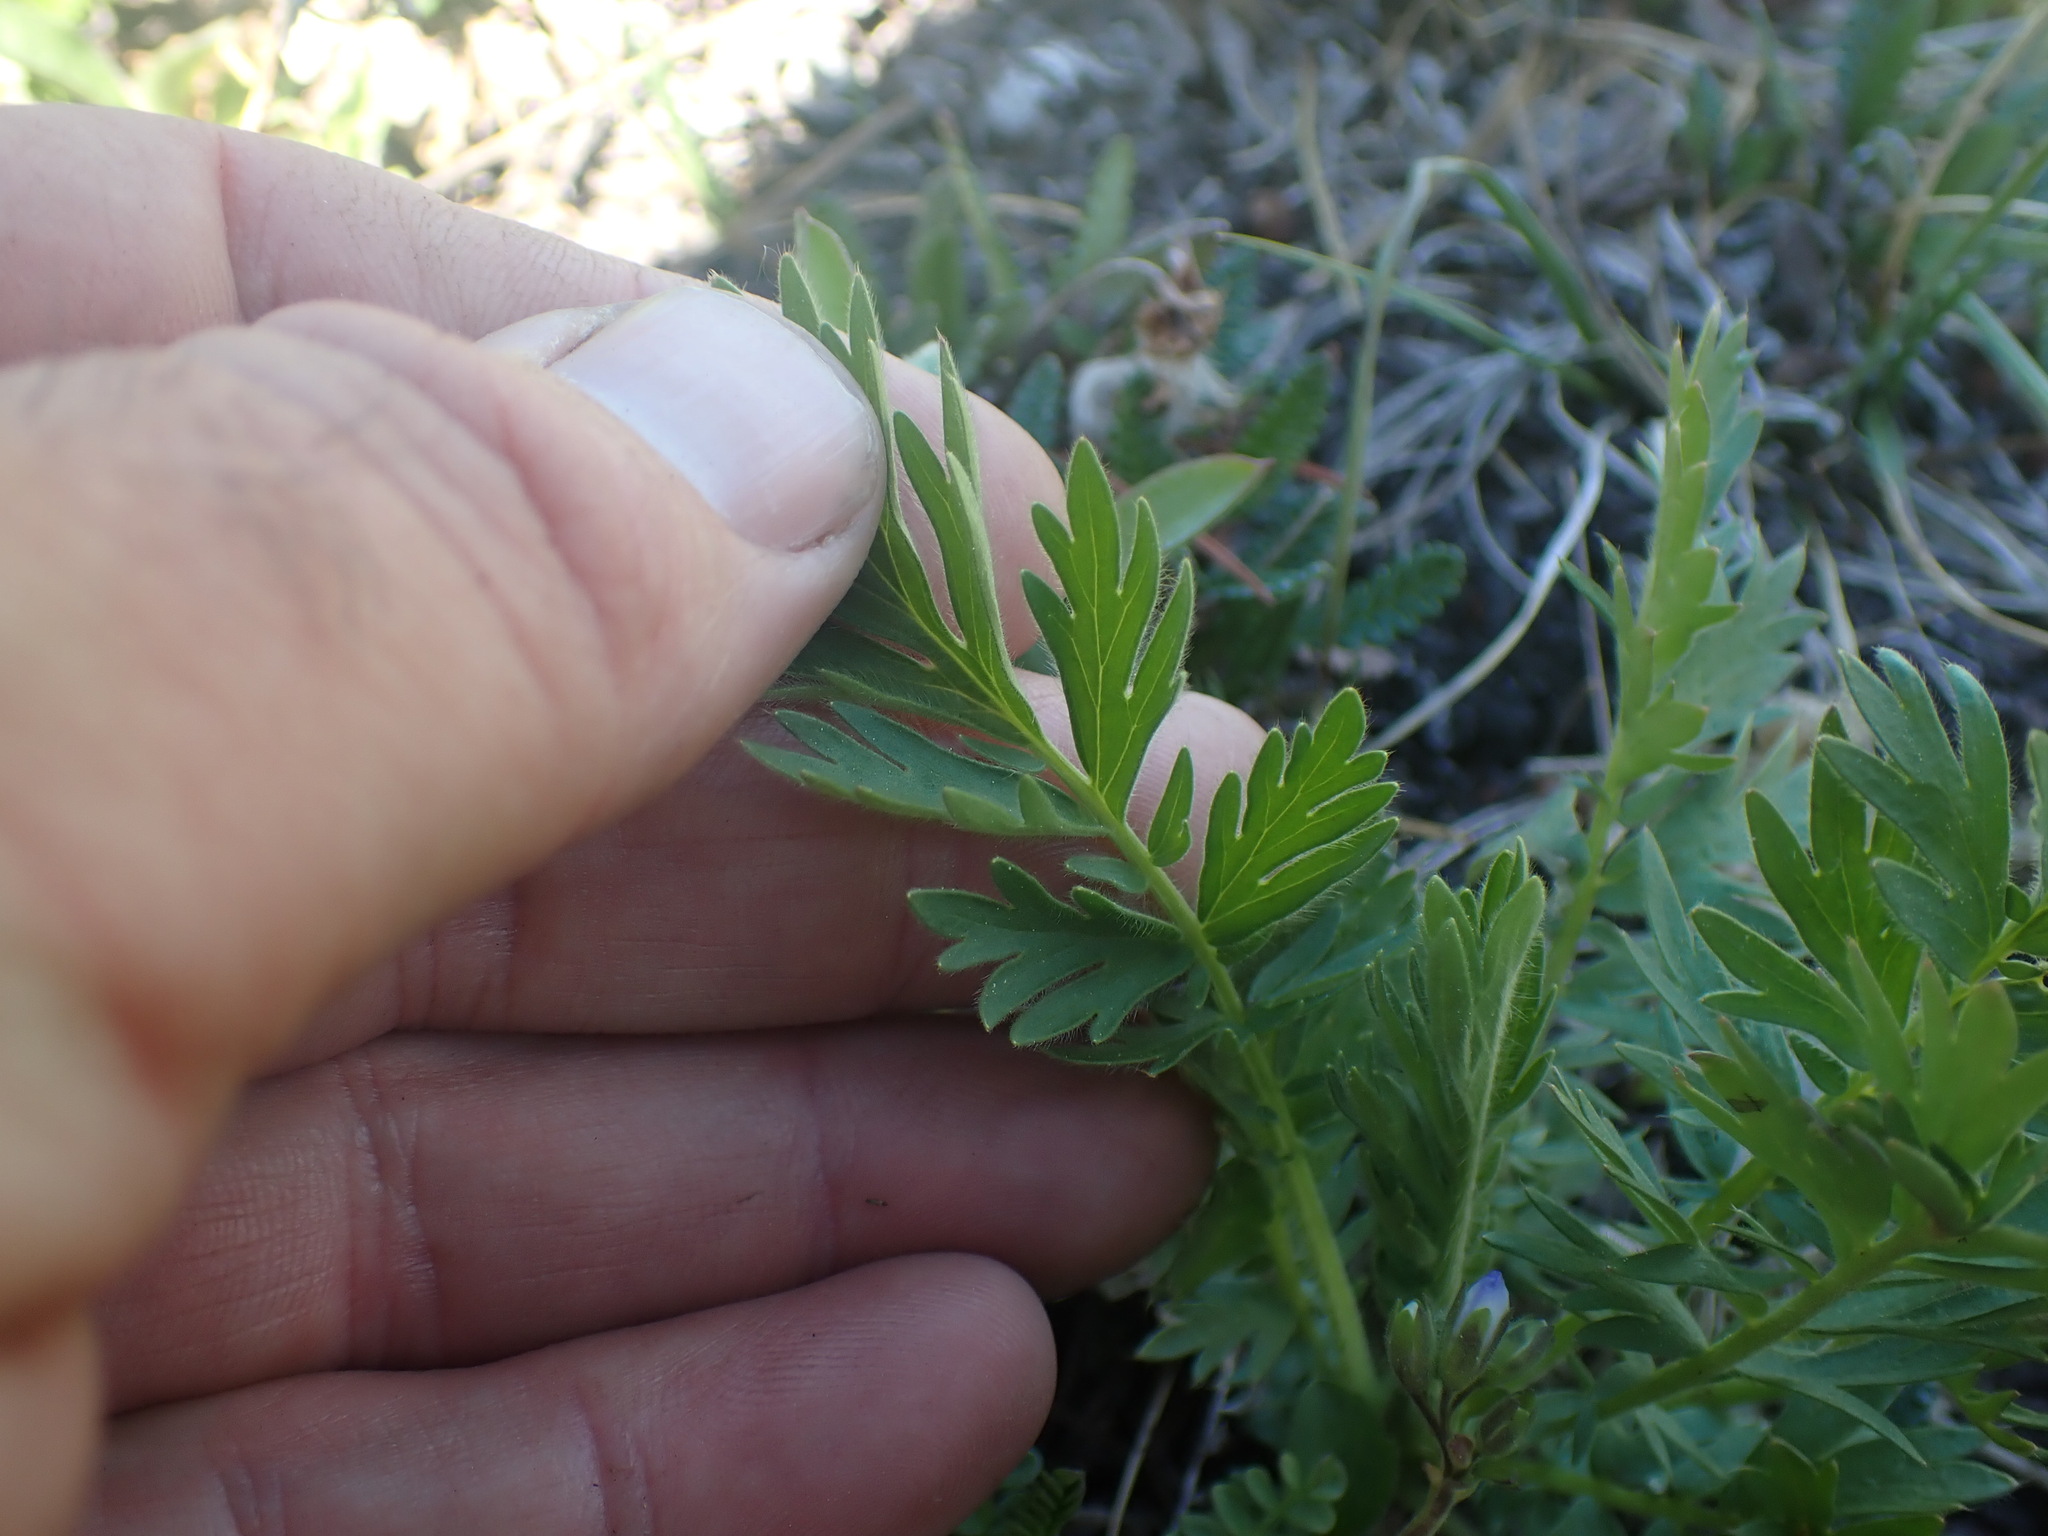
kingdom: Plantae
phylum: Tracheophyta
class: Magnoliopsida
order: Rosales
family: Rosaceae
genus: Geum
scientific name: Geum triflorum
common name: Old man's whiskers
